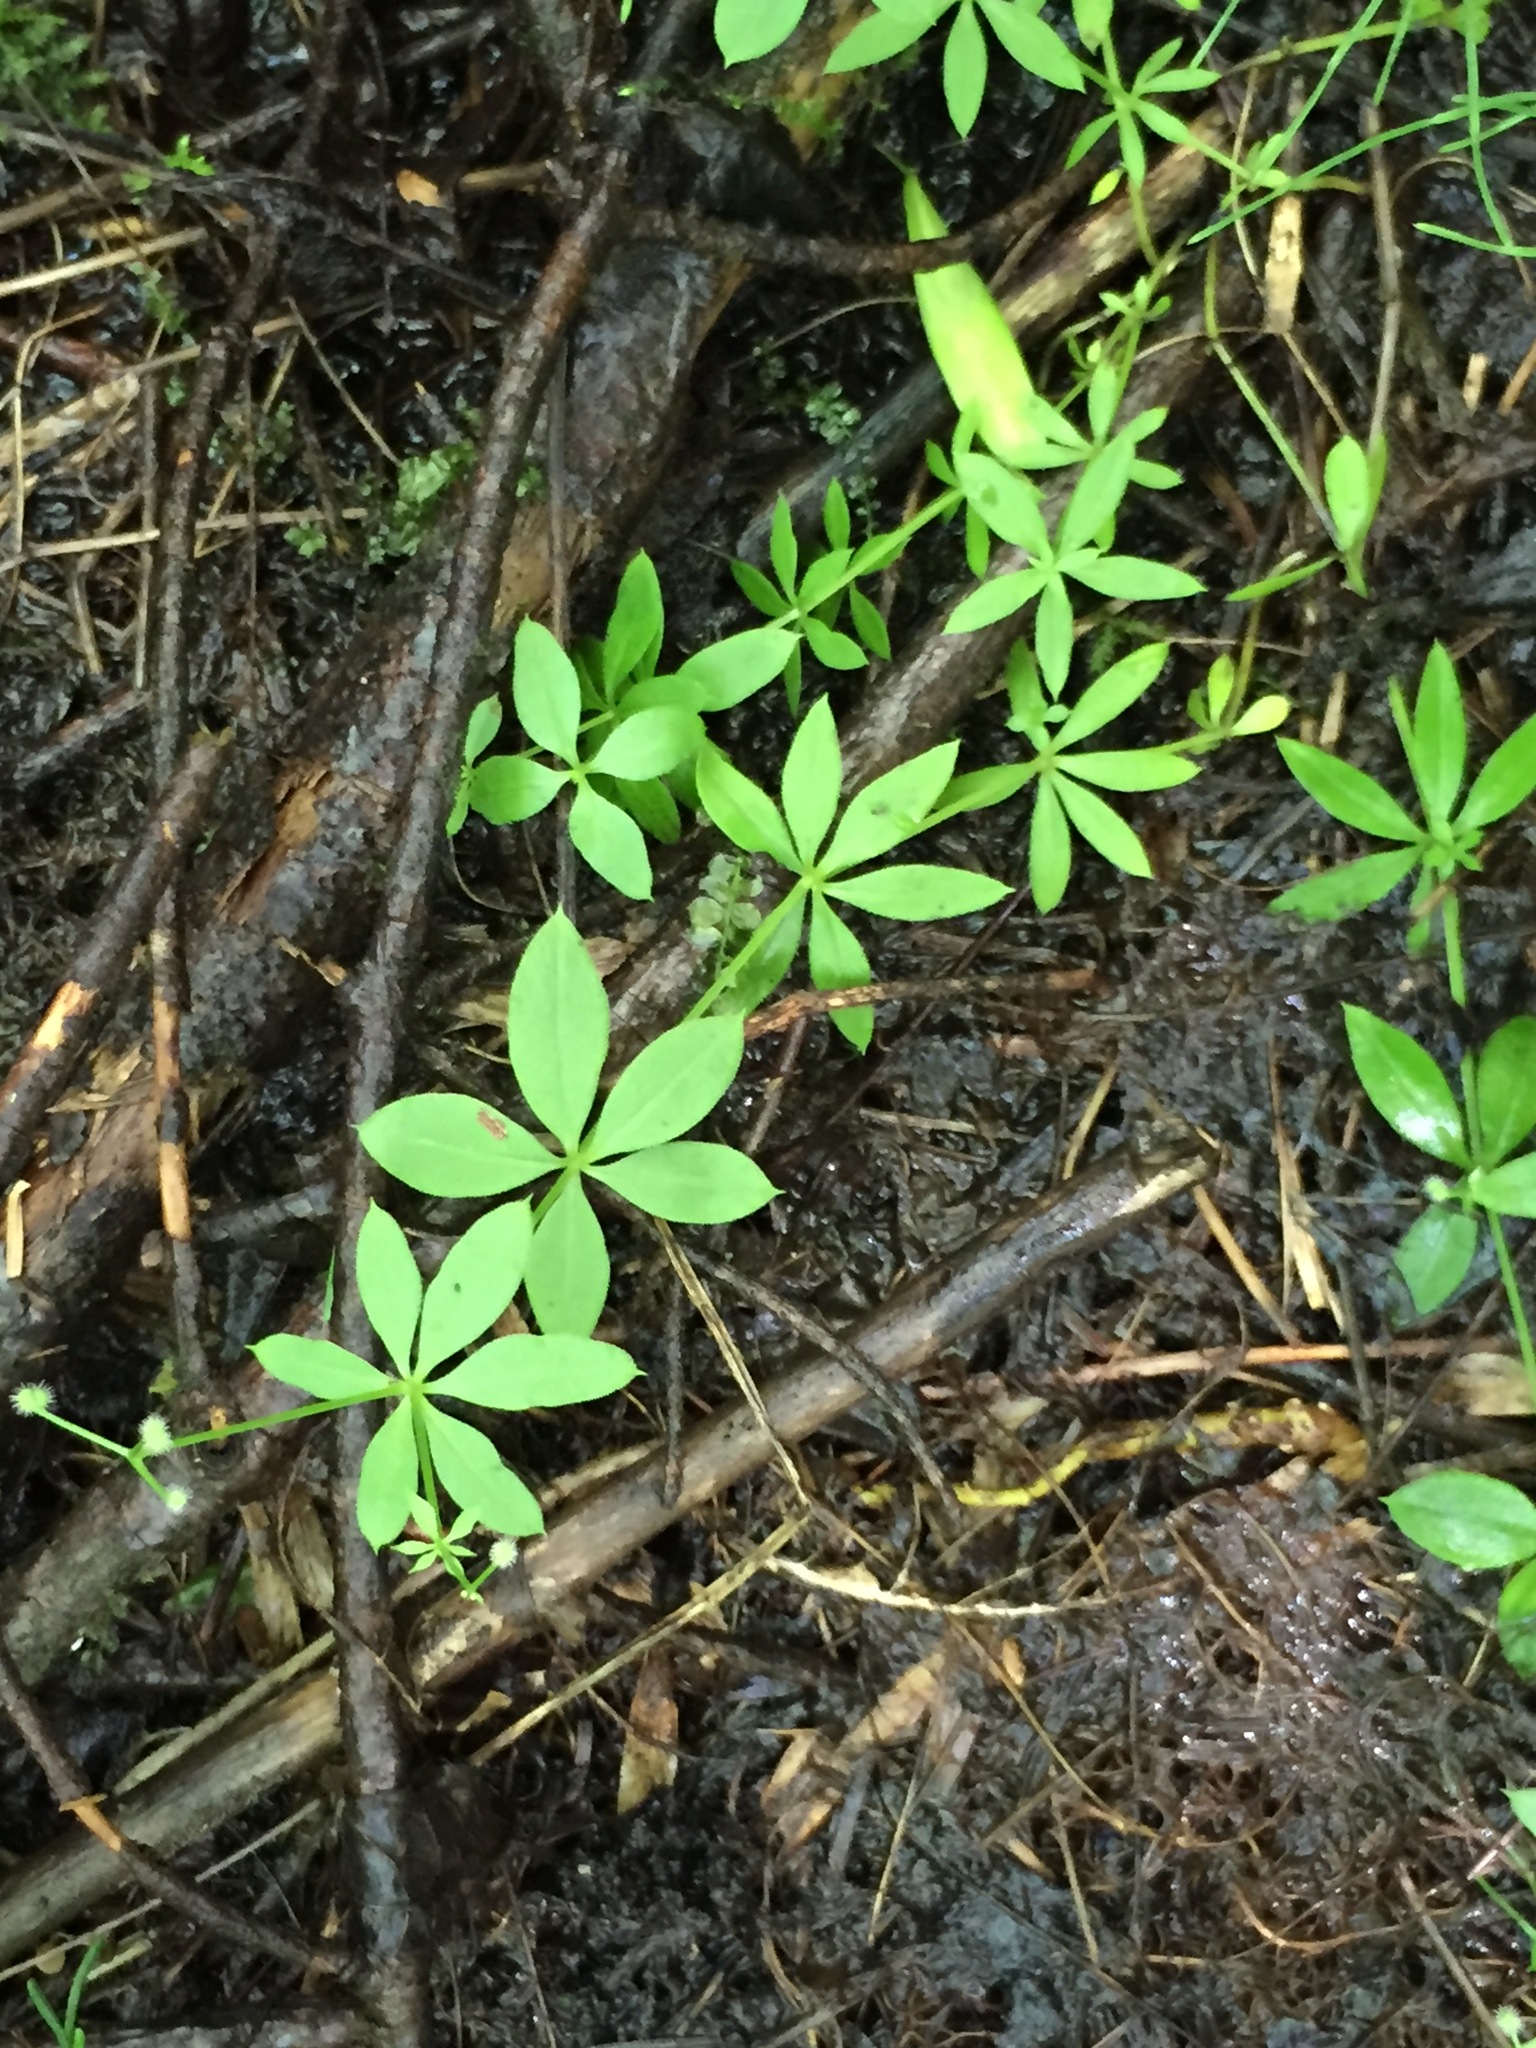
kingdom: Plantae
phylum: Tracheophyta
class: Magnoliopsida
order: Gentianales
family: Rubiaceae
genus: Galium
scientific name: Galium triflorum
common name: Fragrant bedstraw
